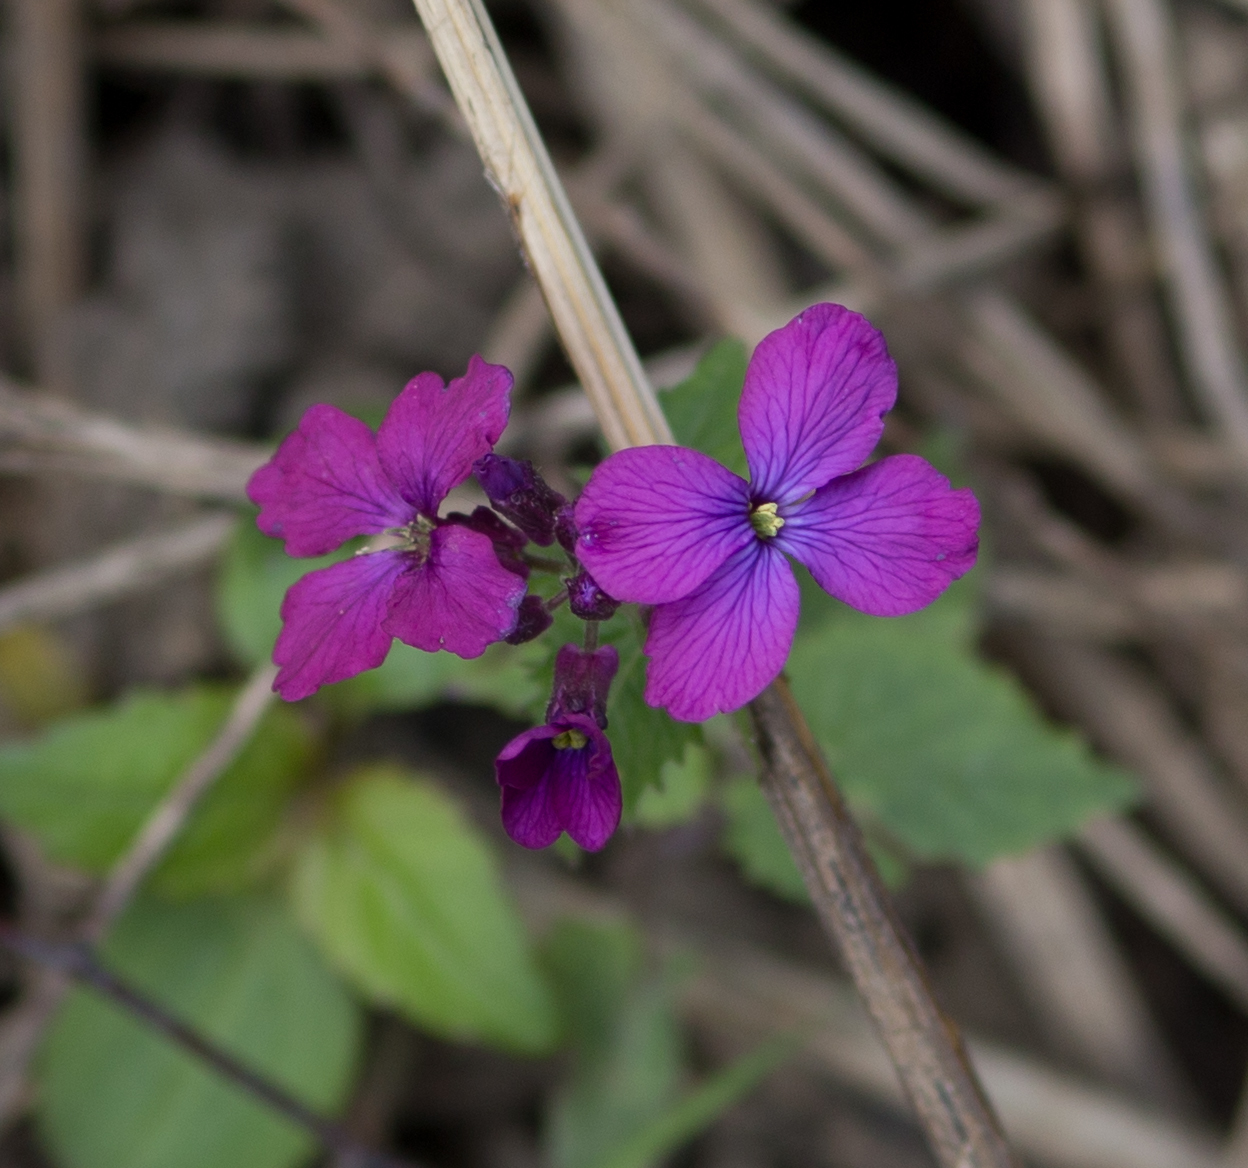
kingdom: Plantae
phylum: Tracheophyta
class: Magnoliopsida
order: Brassicales
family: Brassicaceae
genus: Lunaria
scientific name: Lunaria annua
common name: Honesty
